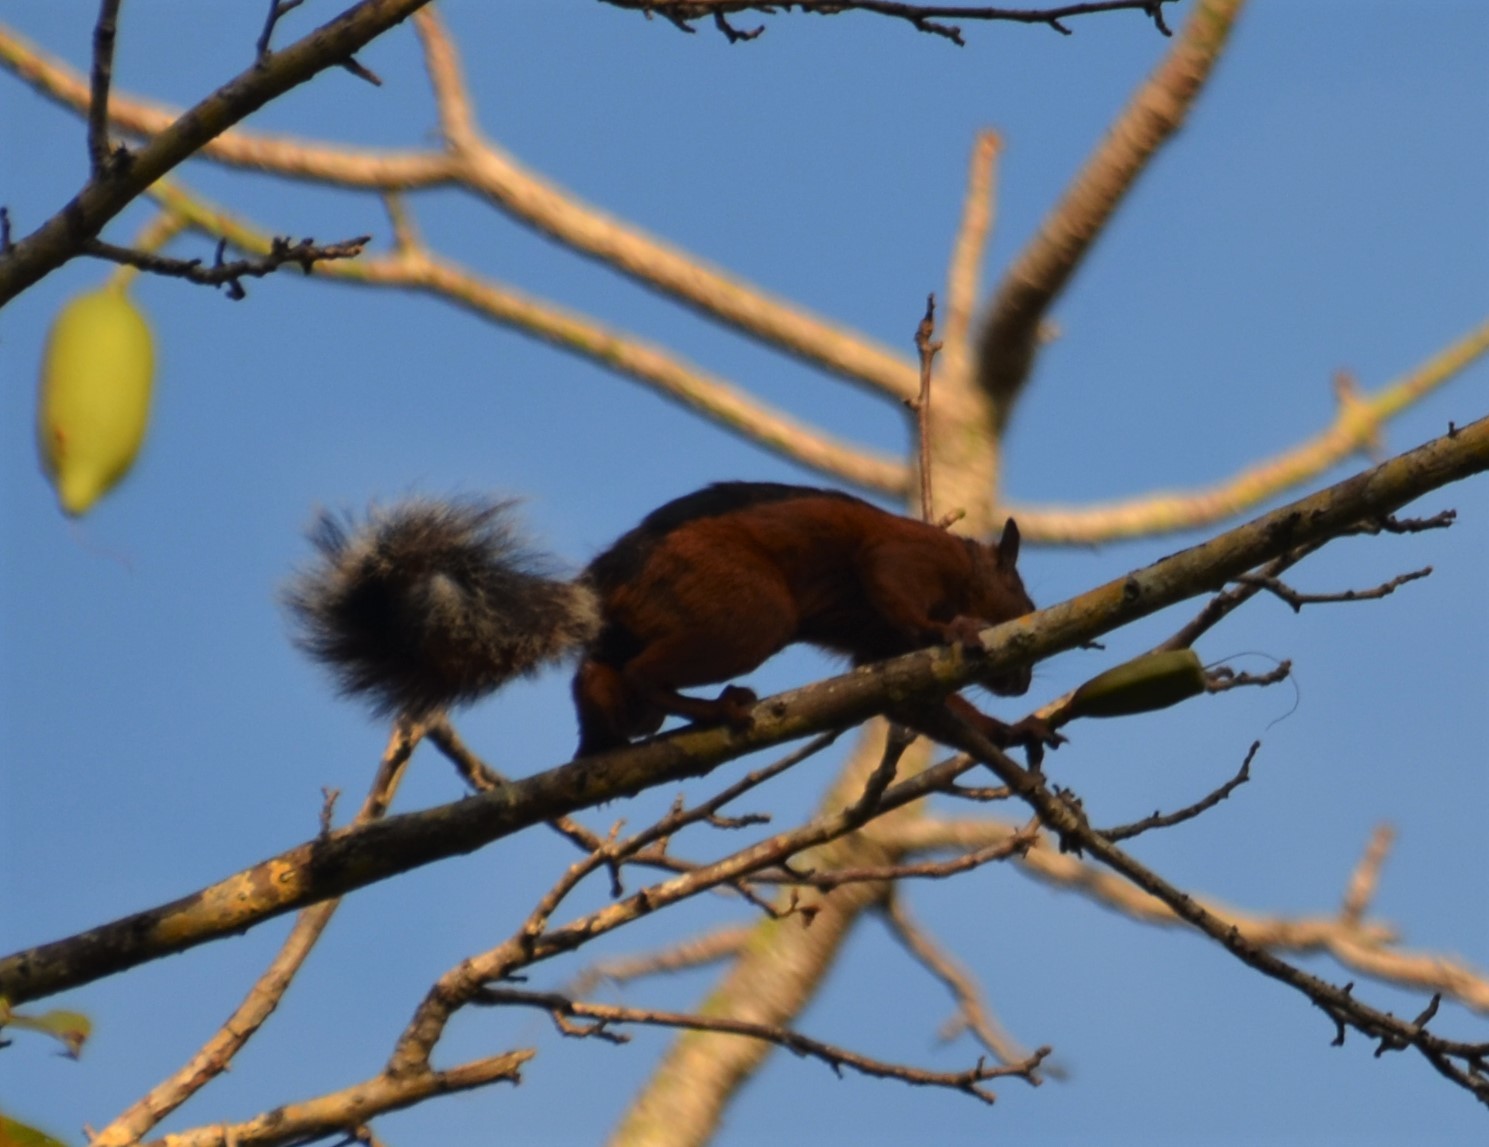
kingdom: Animalia
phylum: Chordata
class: Mammalia
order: Rodentia
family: Sciuridae
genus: Sciurus
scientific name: Sciurus variegatoides
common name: Variegated squirrel
